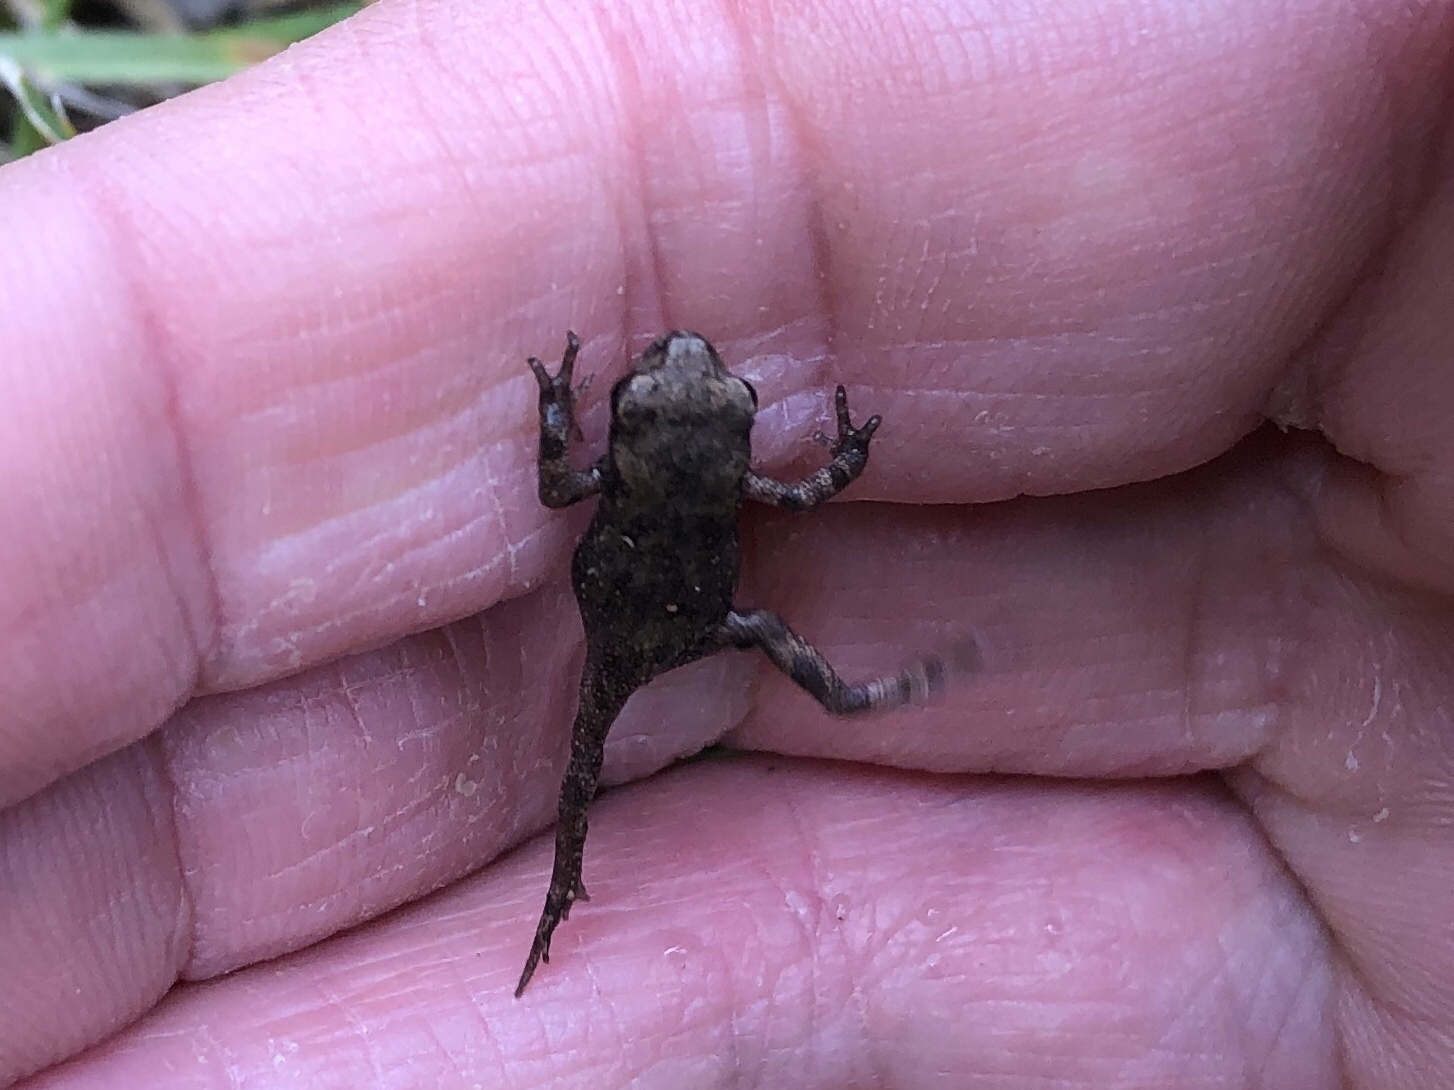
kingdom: Animalia
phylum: Chordata
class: Amphibia
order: Anura
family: Bufonidae
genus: Bufo
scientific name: Bufo bufo
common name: Common toad
